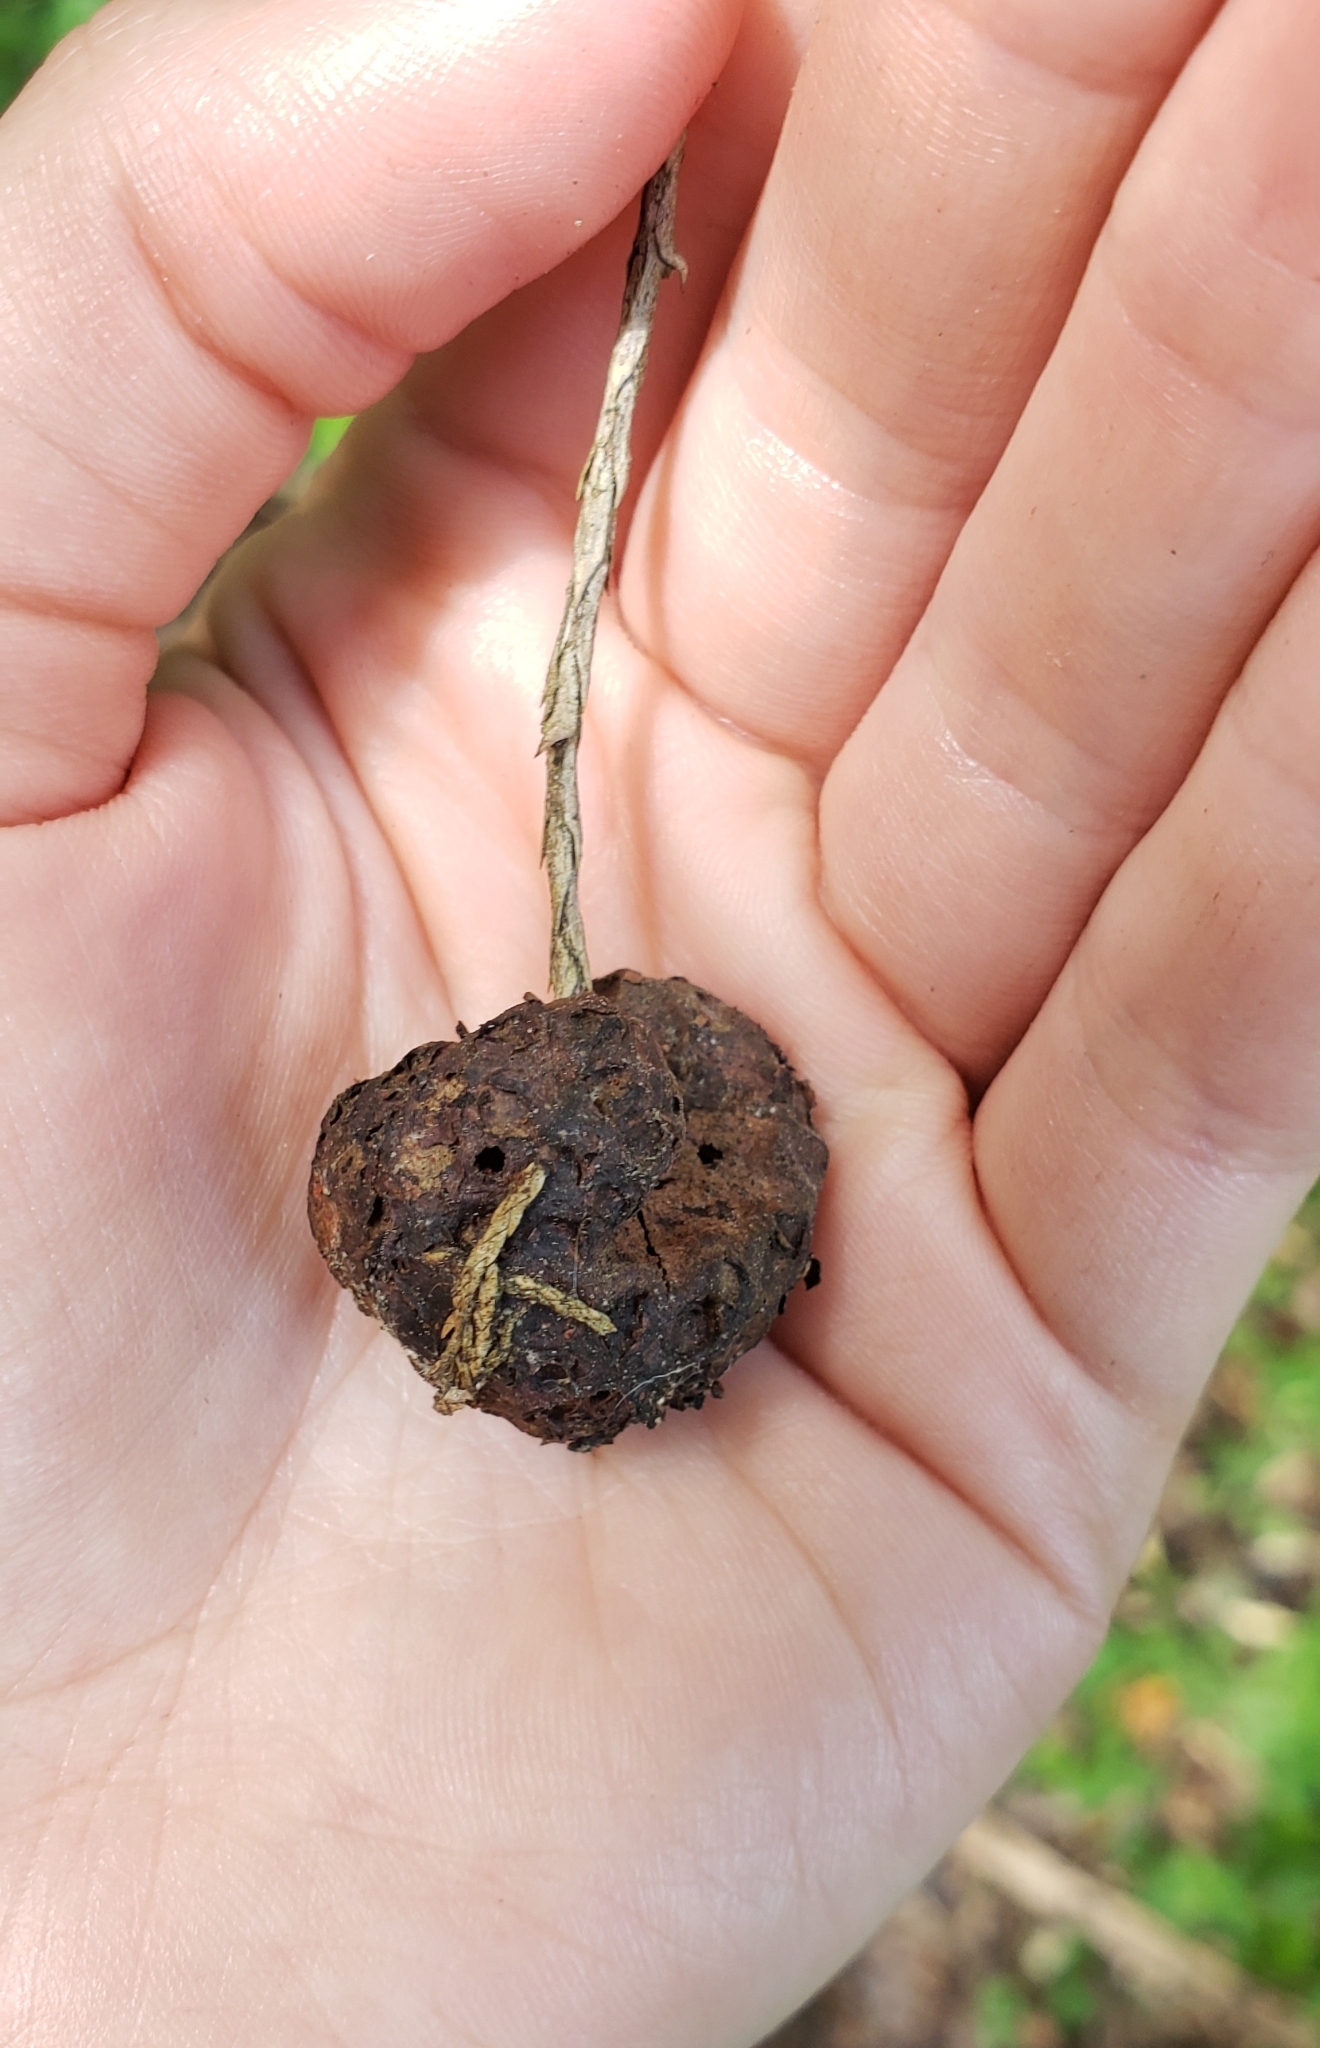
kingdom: Fungi
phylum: Basidiomycota
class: Pucciniomycetes
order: Pucciniales
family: Gymnosporangiaceae
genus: Gymnosporangium
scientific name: Gymnosporangium juniperi-virginianae
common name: Juniper-apple rust
